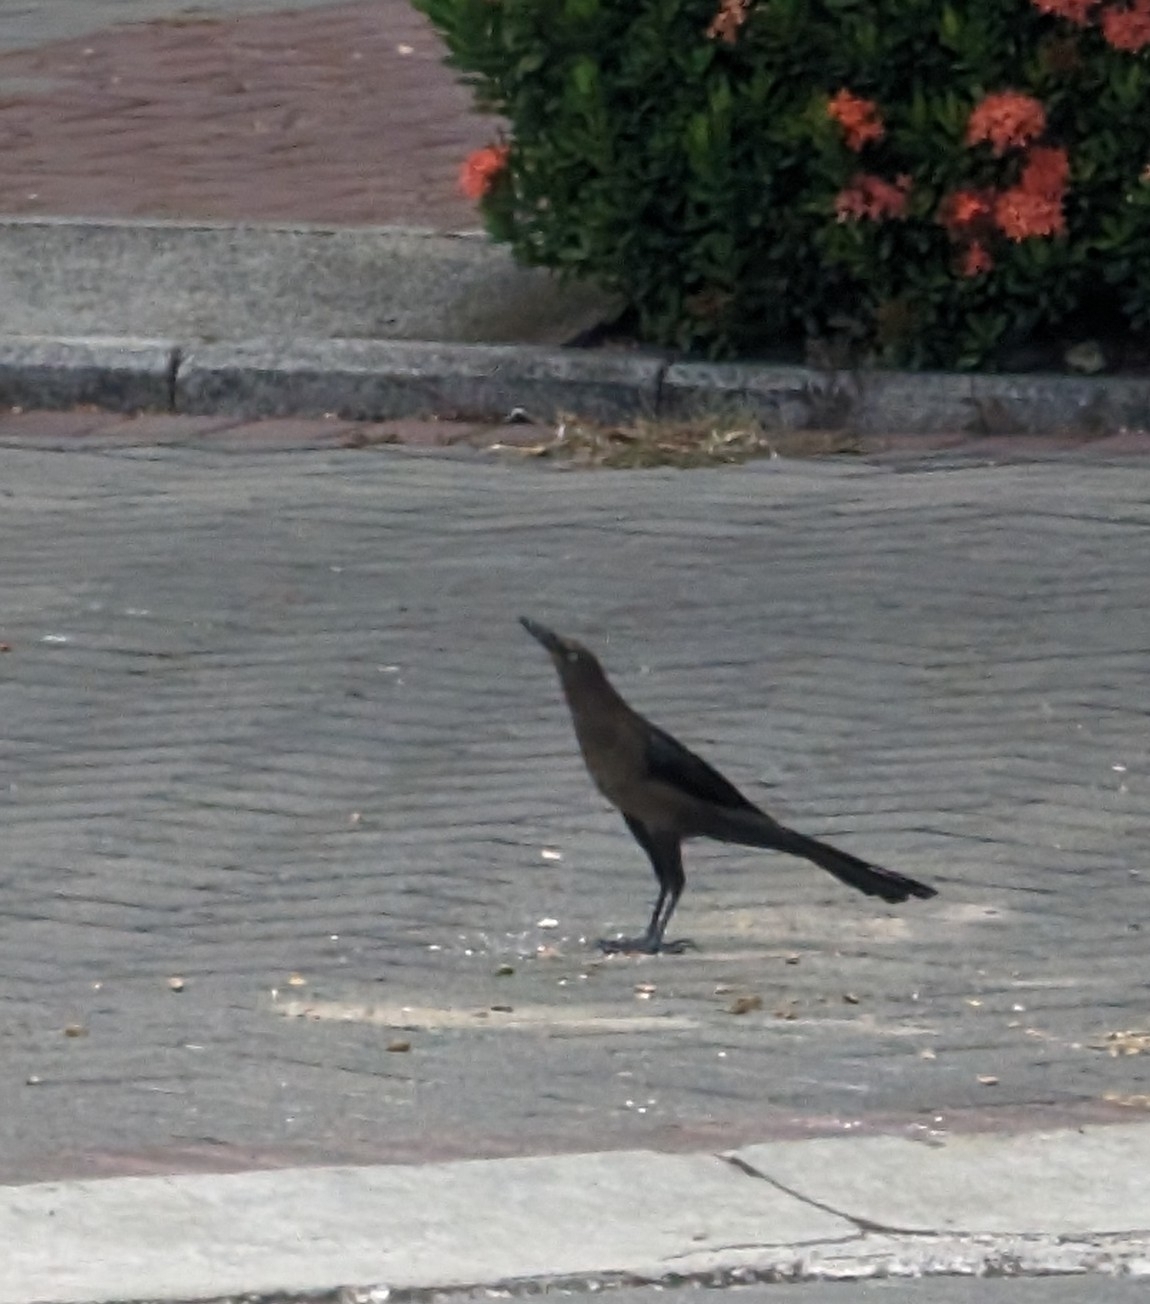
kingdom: Animalia
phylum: Chordata
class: Aves
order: Passeriformes
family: Icteridae
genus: Quiscalus
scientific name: Quiscalus mexicanus
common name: Great-tailed grackle
